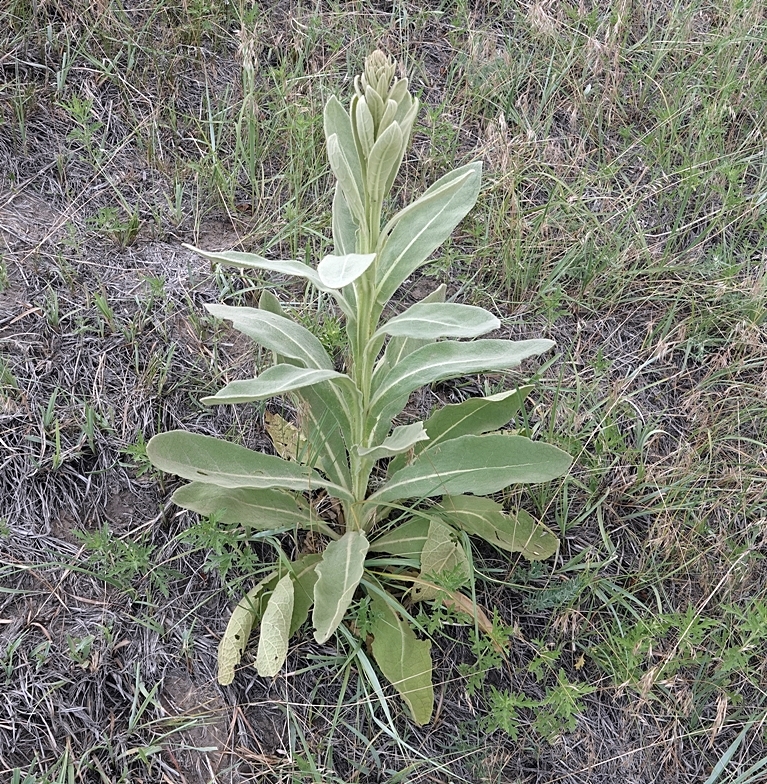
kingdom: Plantae
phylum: Tracheophyta
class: Magnoliopsida
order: Lamiales
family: Scrophulariaceae
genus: Verbascum
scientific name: Verbascum thapsus
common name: Common mullein
